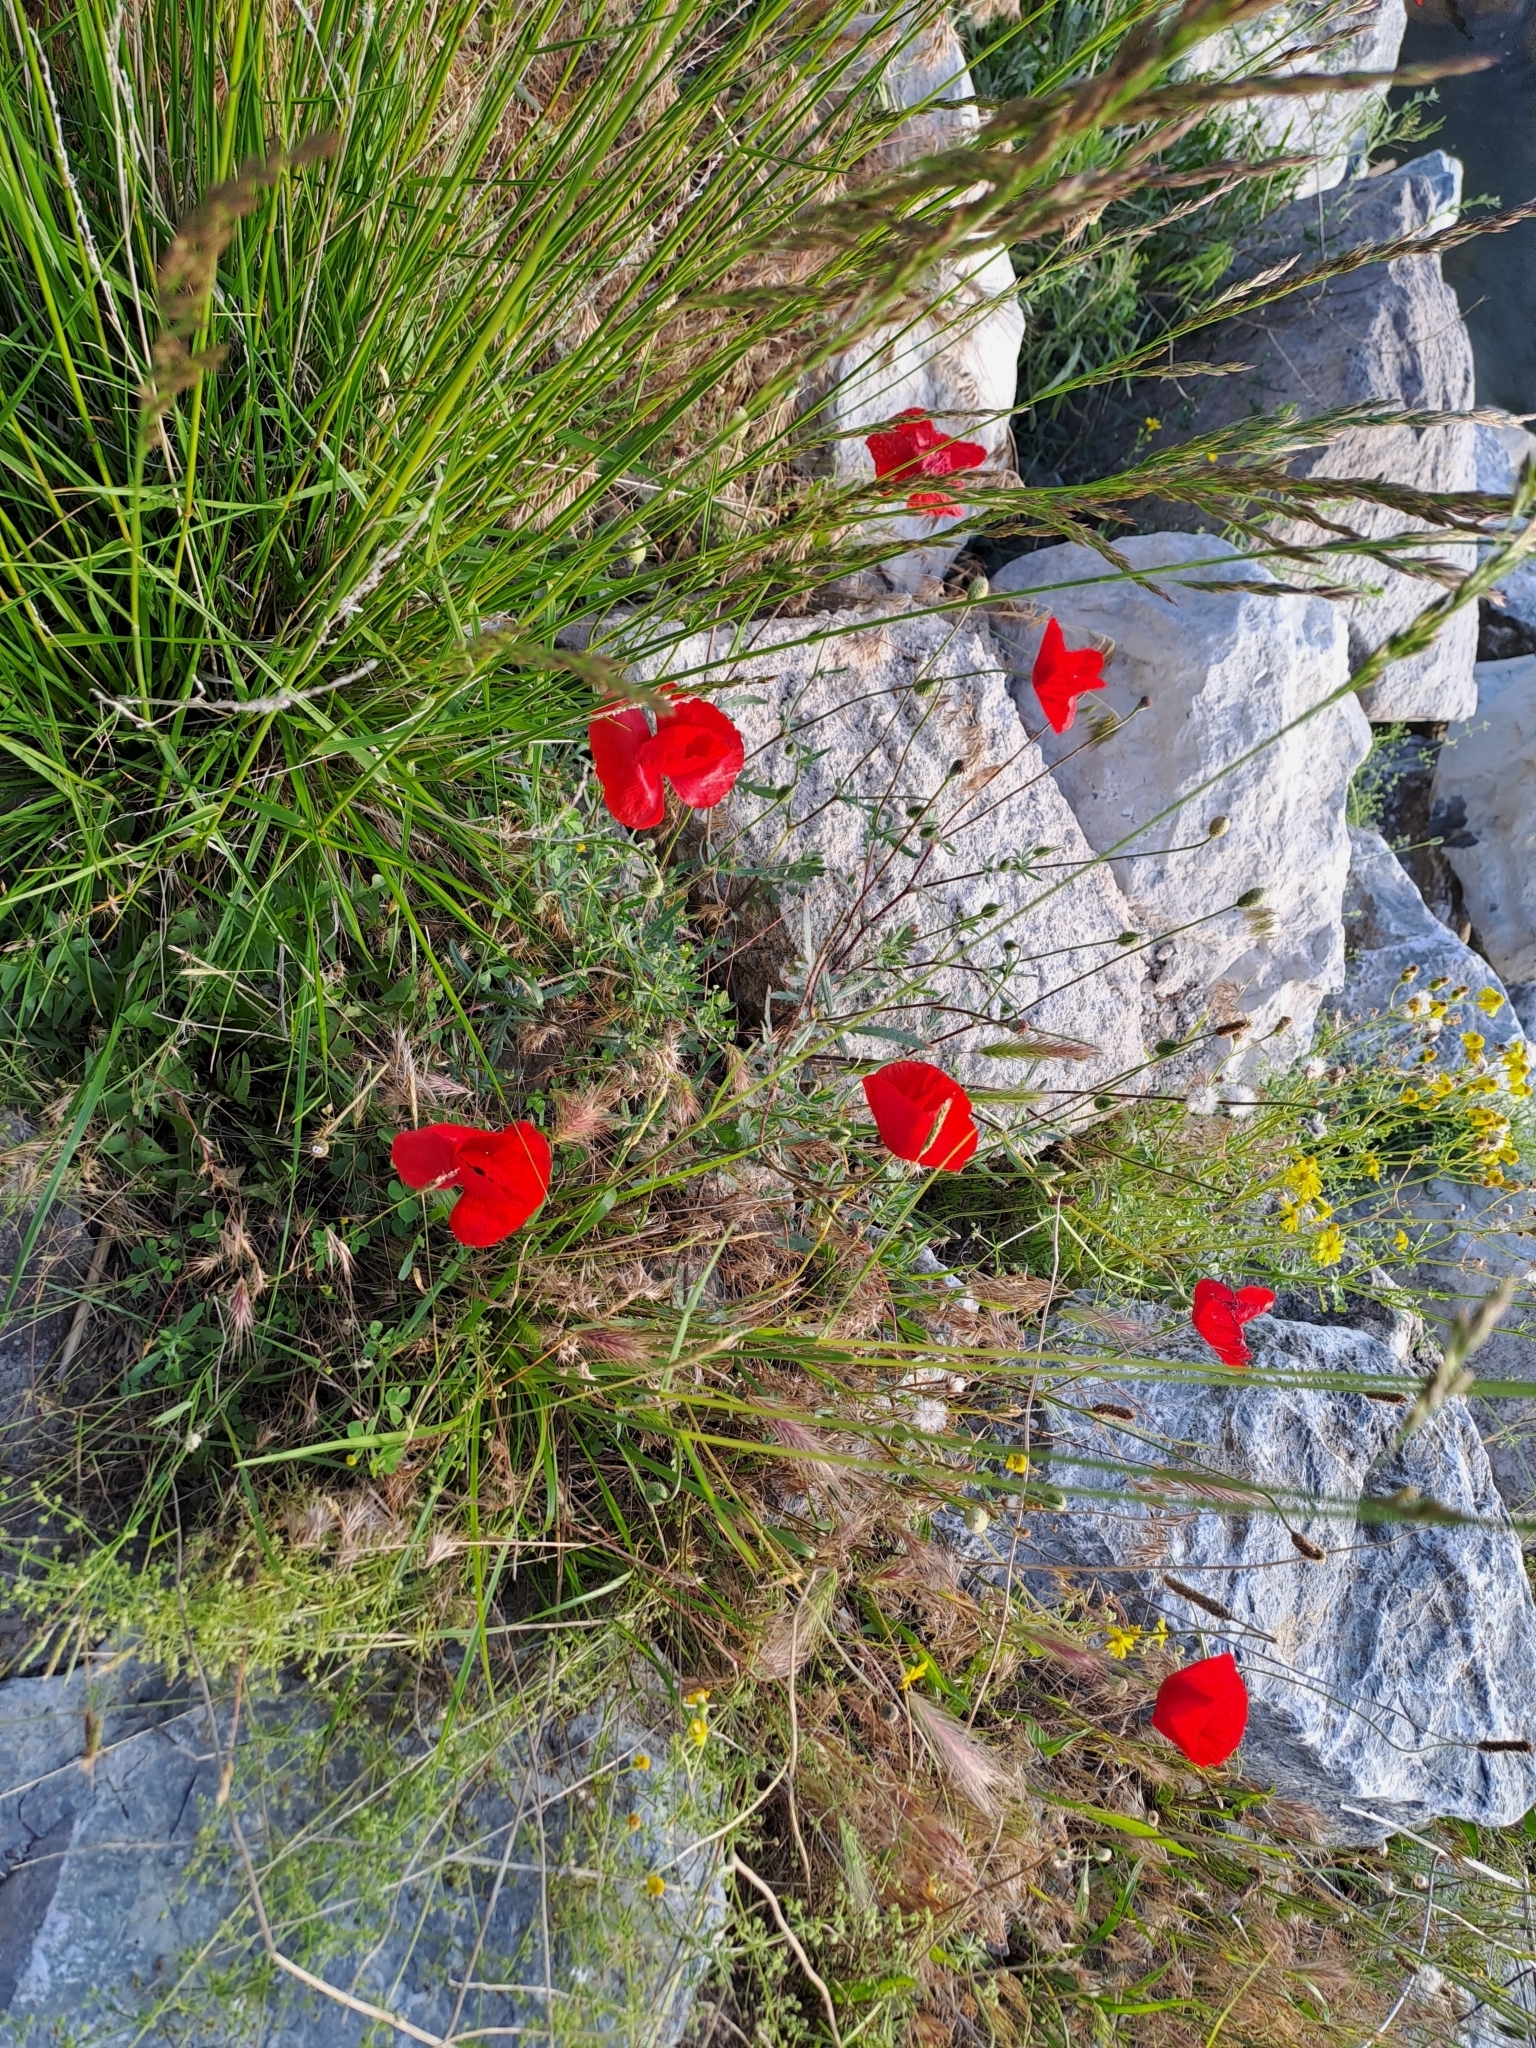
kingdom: Plantae
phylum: Tracheophyta
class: Magnoliopsida
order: Ranunculales
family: Papaveraceae
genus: Papaver
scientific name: Papaver rhoeas
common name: Corn poppy
